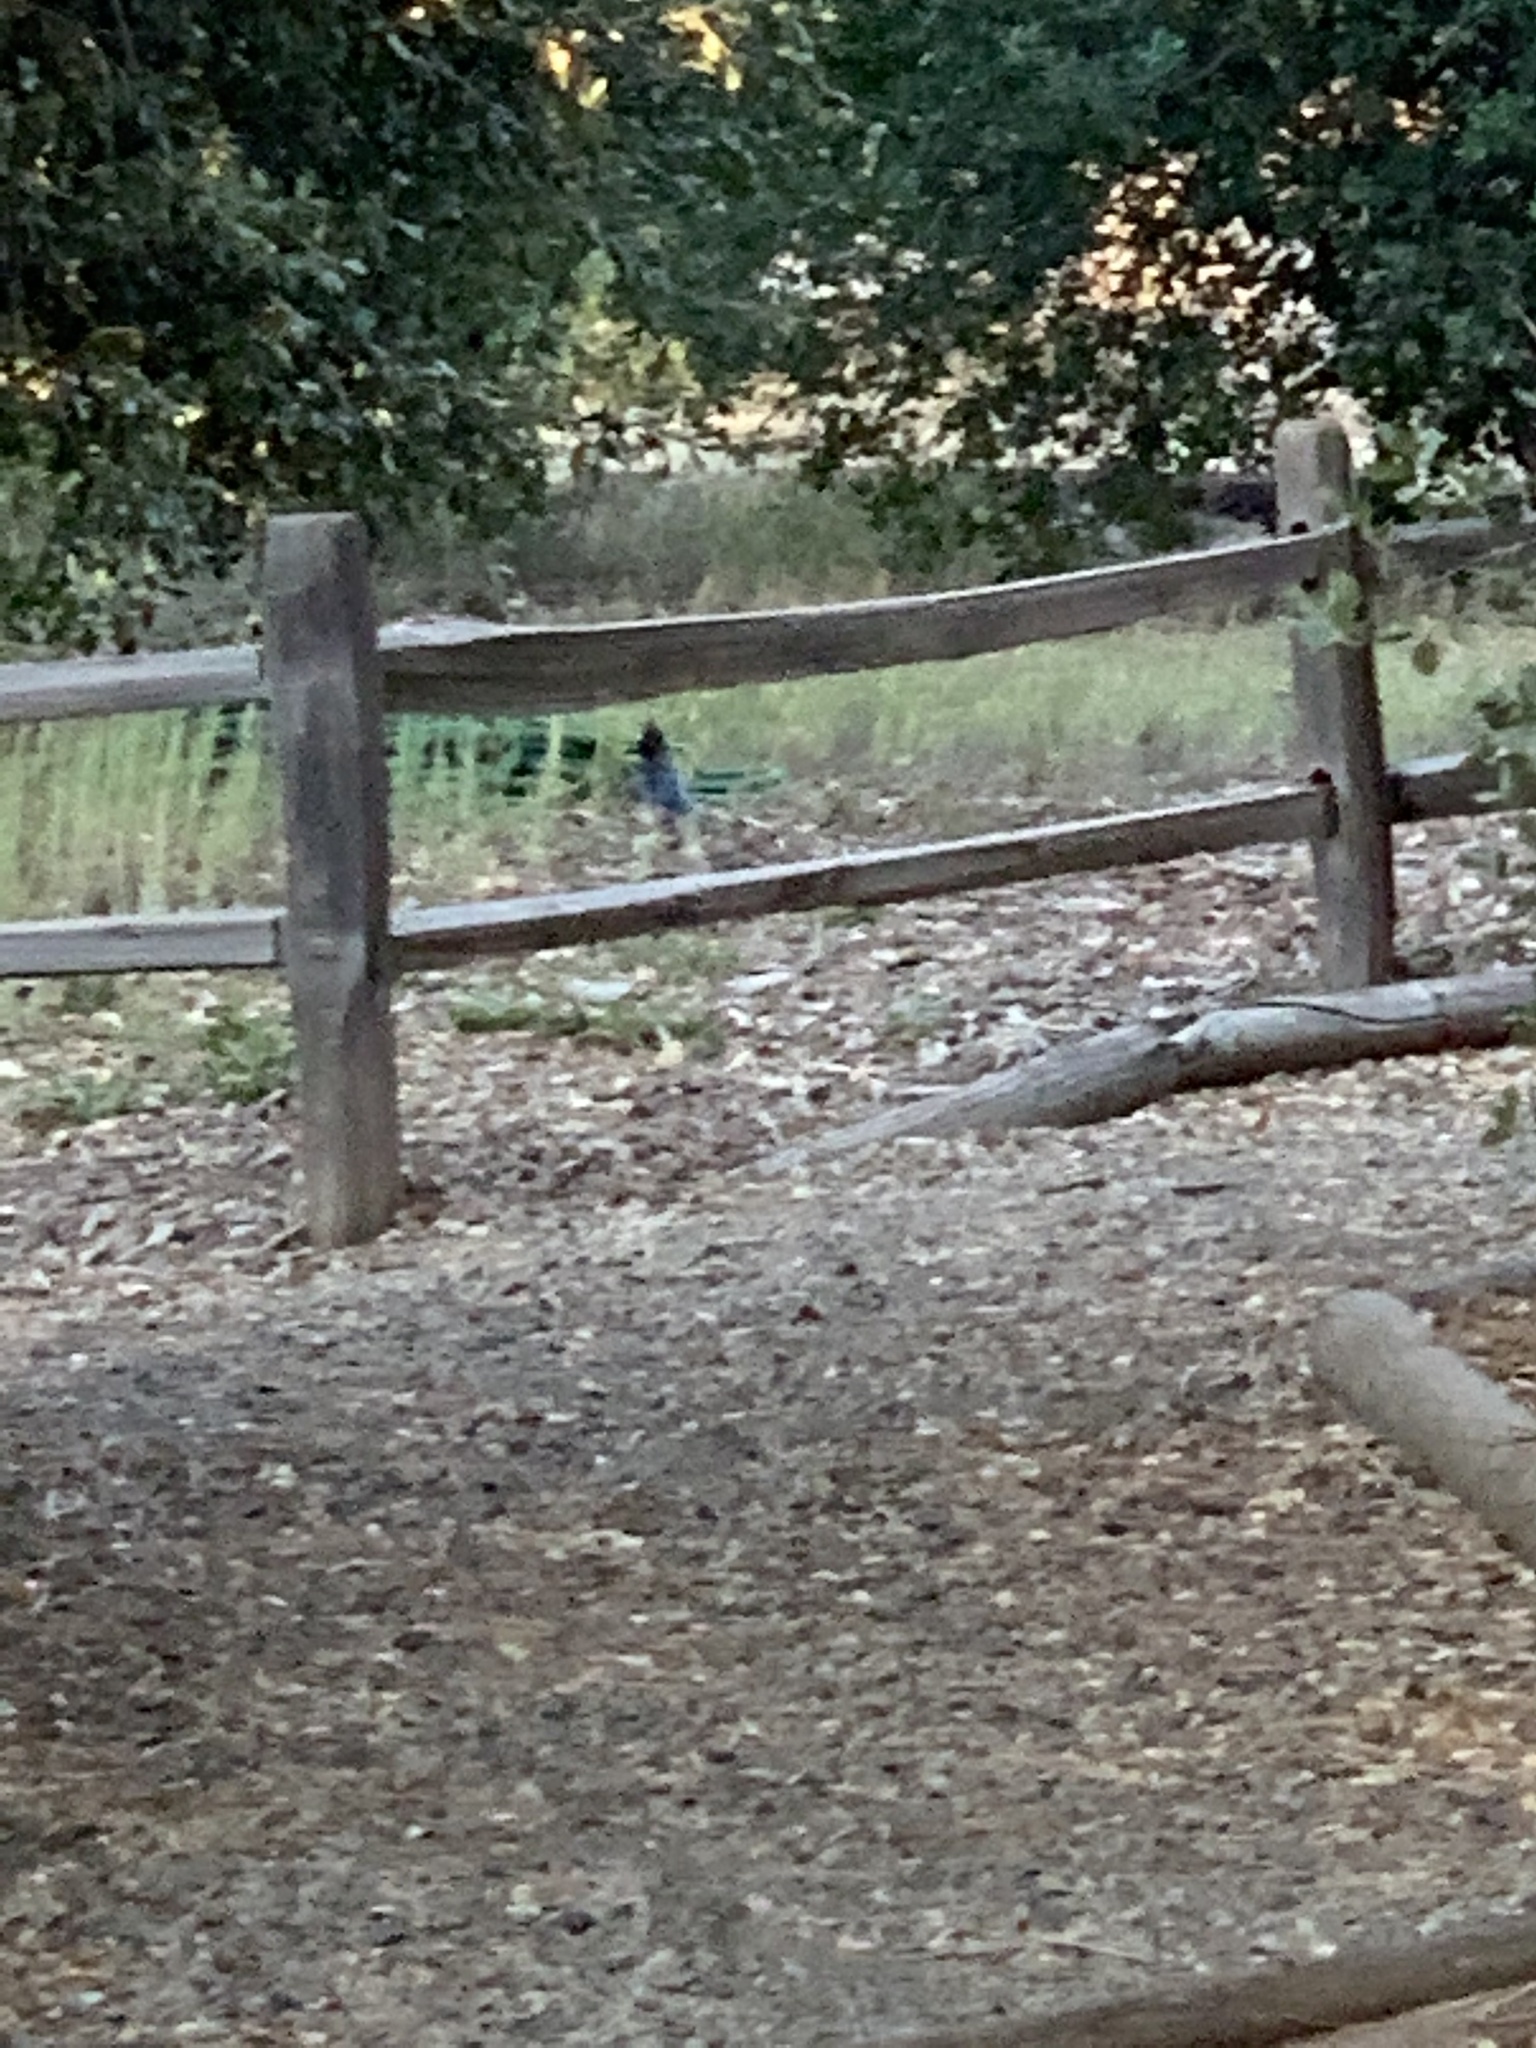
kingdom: Animalia
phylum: Chordata
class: Aves
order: Passeriformes
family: Corvidae
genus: Cyanocitta
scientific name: Cyanocitta stelleri
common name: Steller's jay
